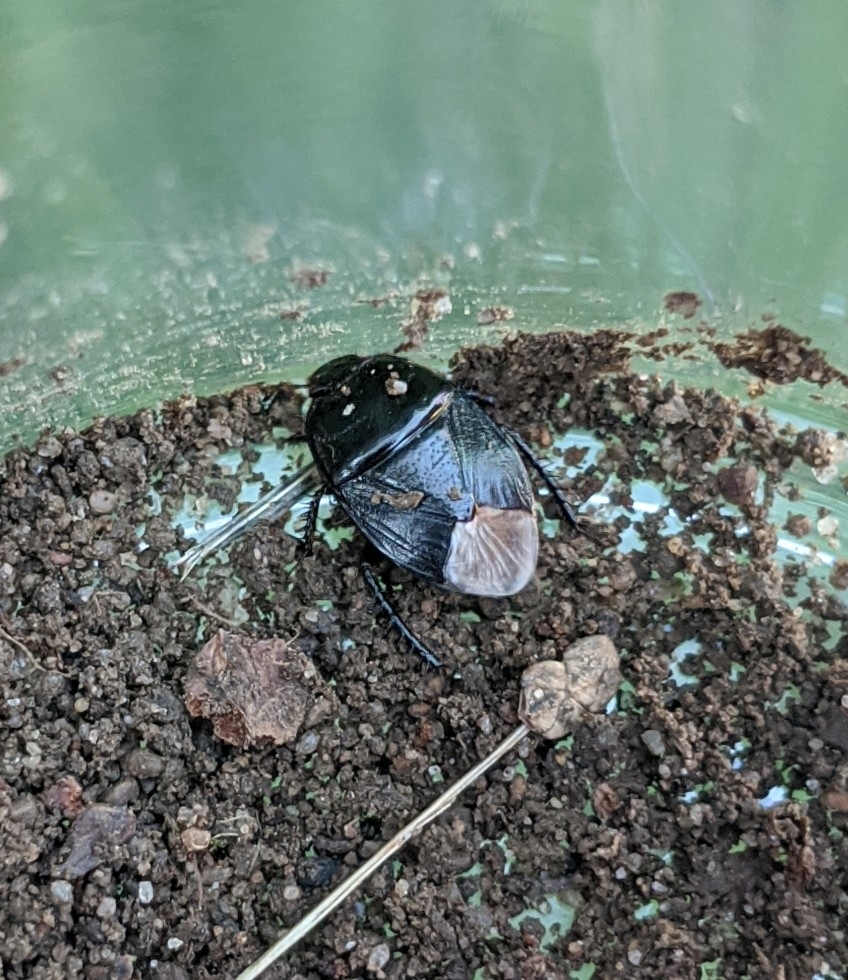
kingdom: Animalia
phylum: Arthropoda
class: Insecta
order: Hemiptera
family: Cydnidae
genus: Pangaeus
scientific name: Pangaeus bilineatus
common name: Burrower bug
